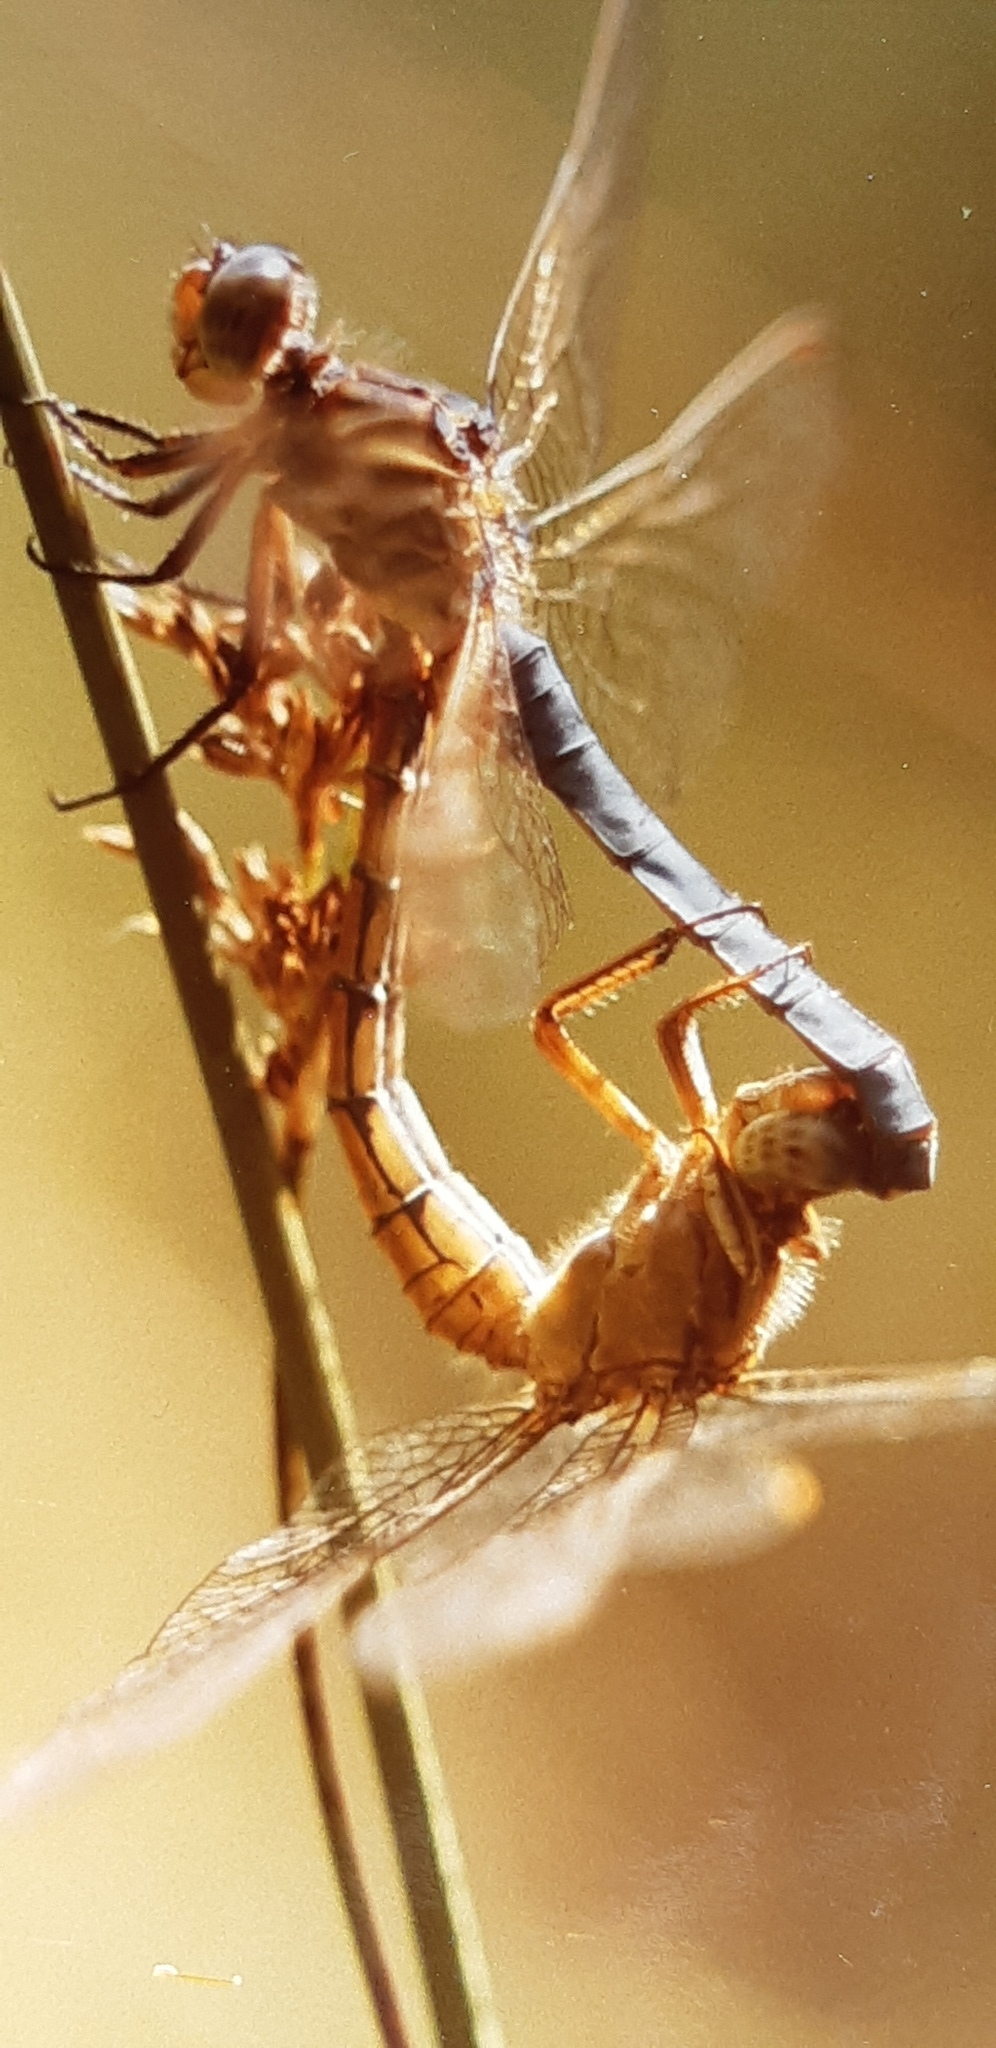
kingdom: Animalia
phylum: Arthropoda
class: Insecta
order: Odonata
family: Libellulidae
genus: Orthetrum
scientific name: Orthetrum coerulescens
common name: Keeled skimmer
